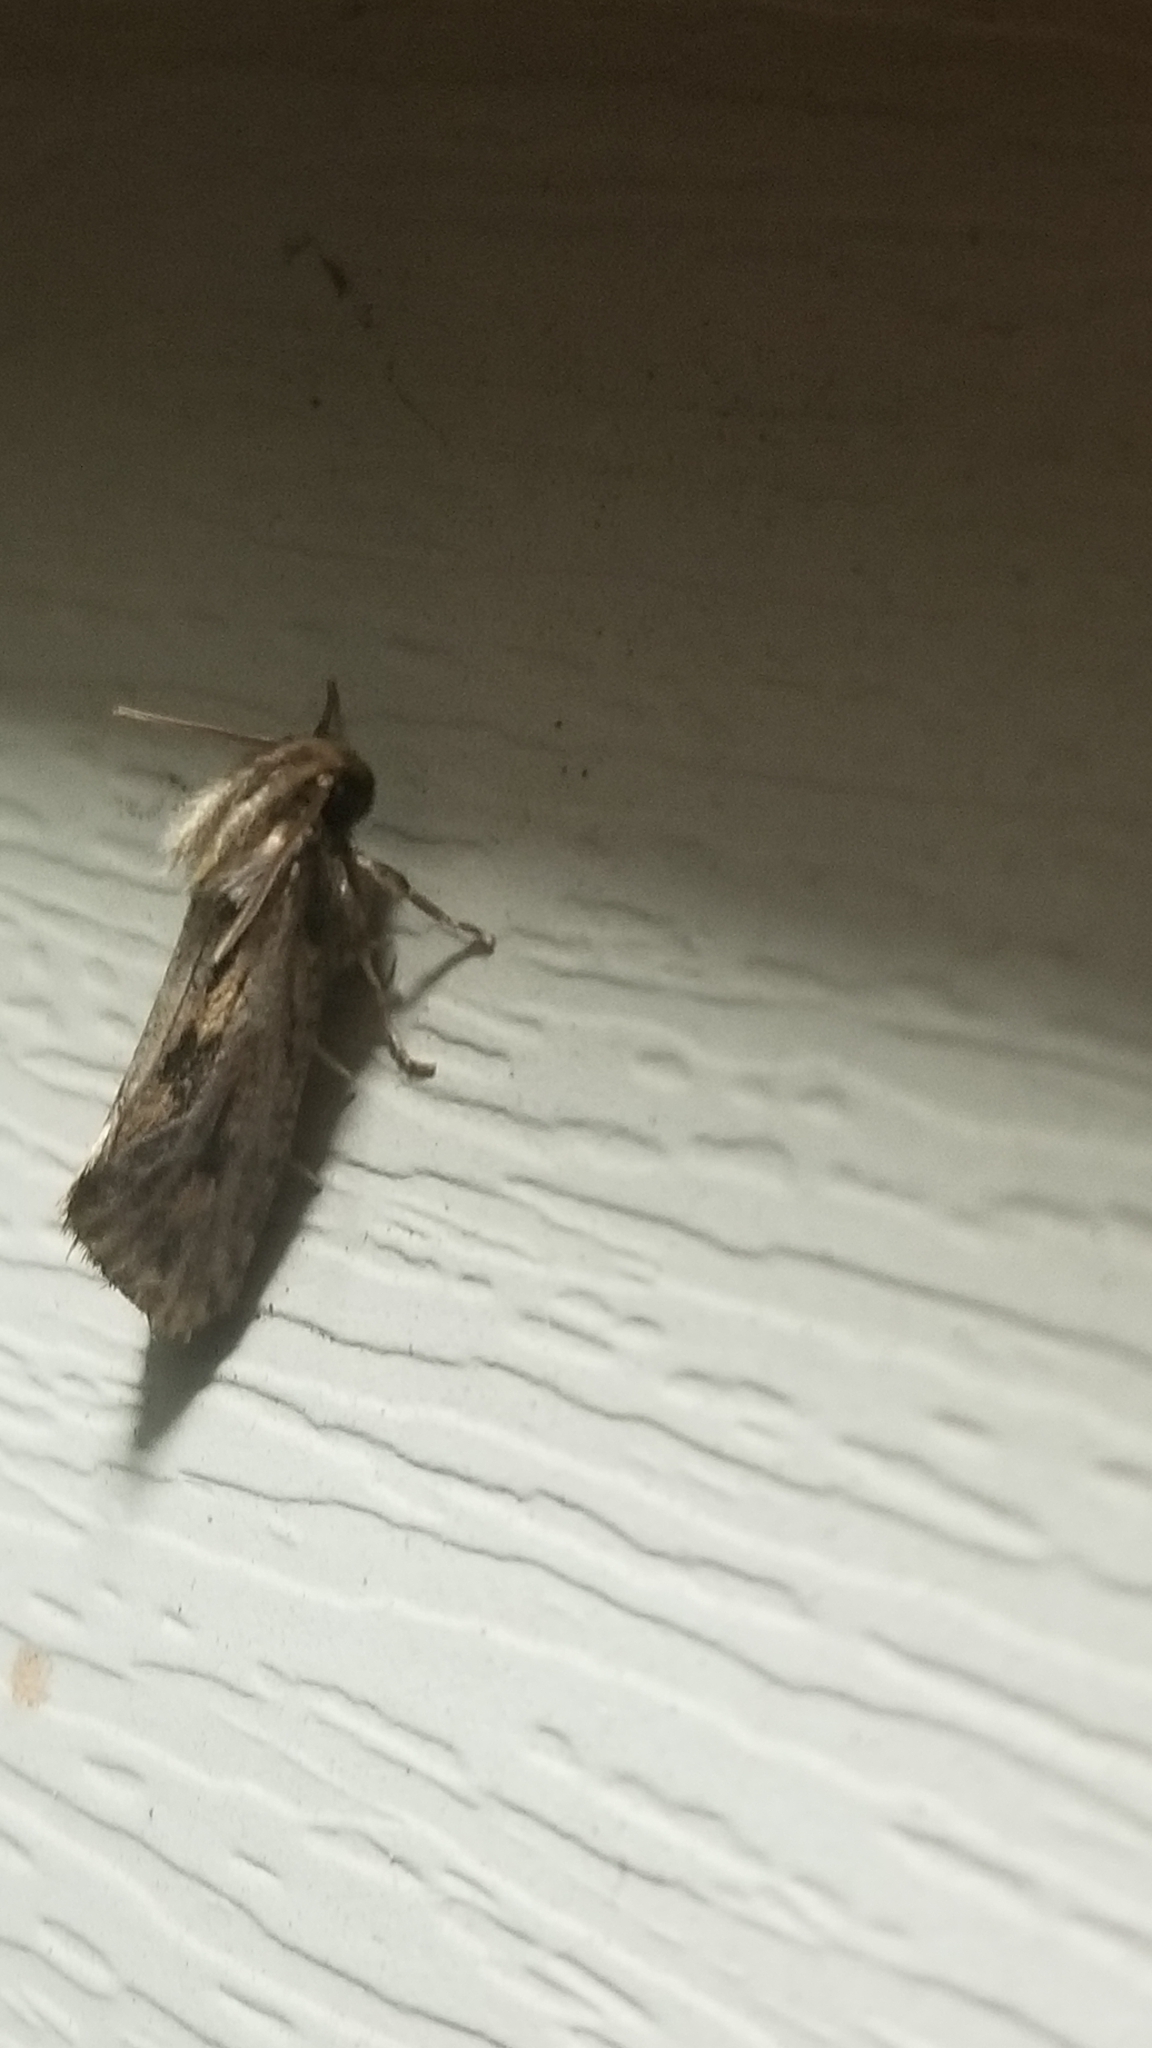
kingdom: Animalia
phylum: Arthropoda
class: Insecta
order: Lepidoptera
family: Tineidae
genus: Acrolophus
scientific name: Acrolophus popeanella
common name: Clemens' grass tubeworm moth
